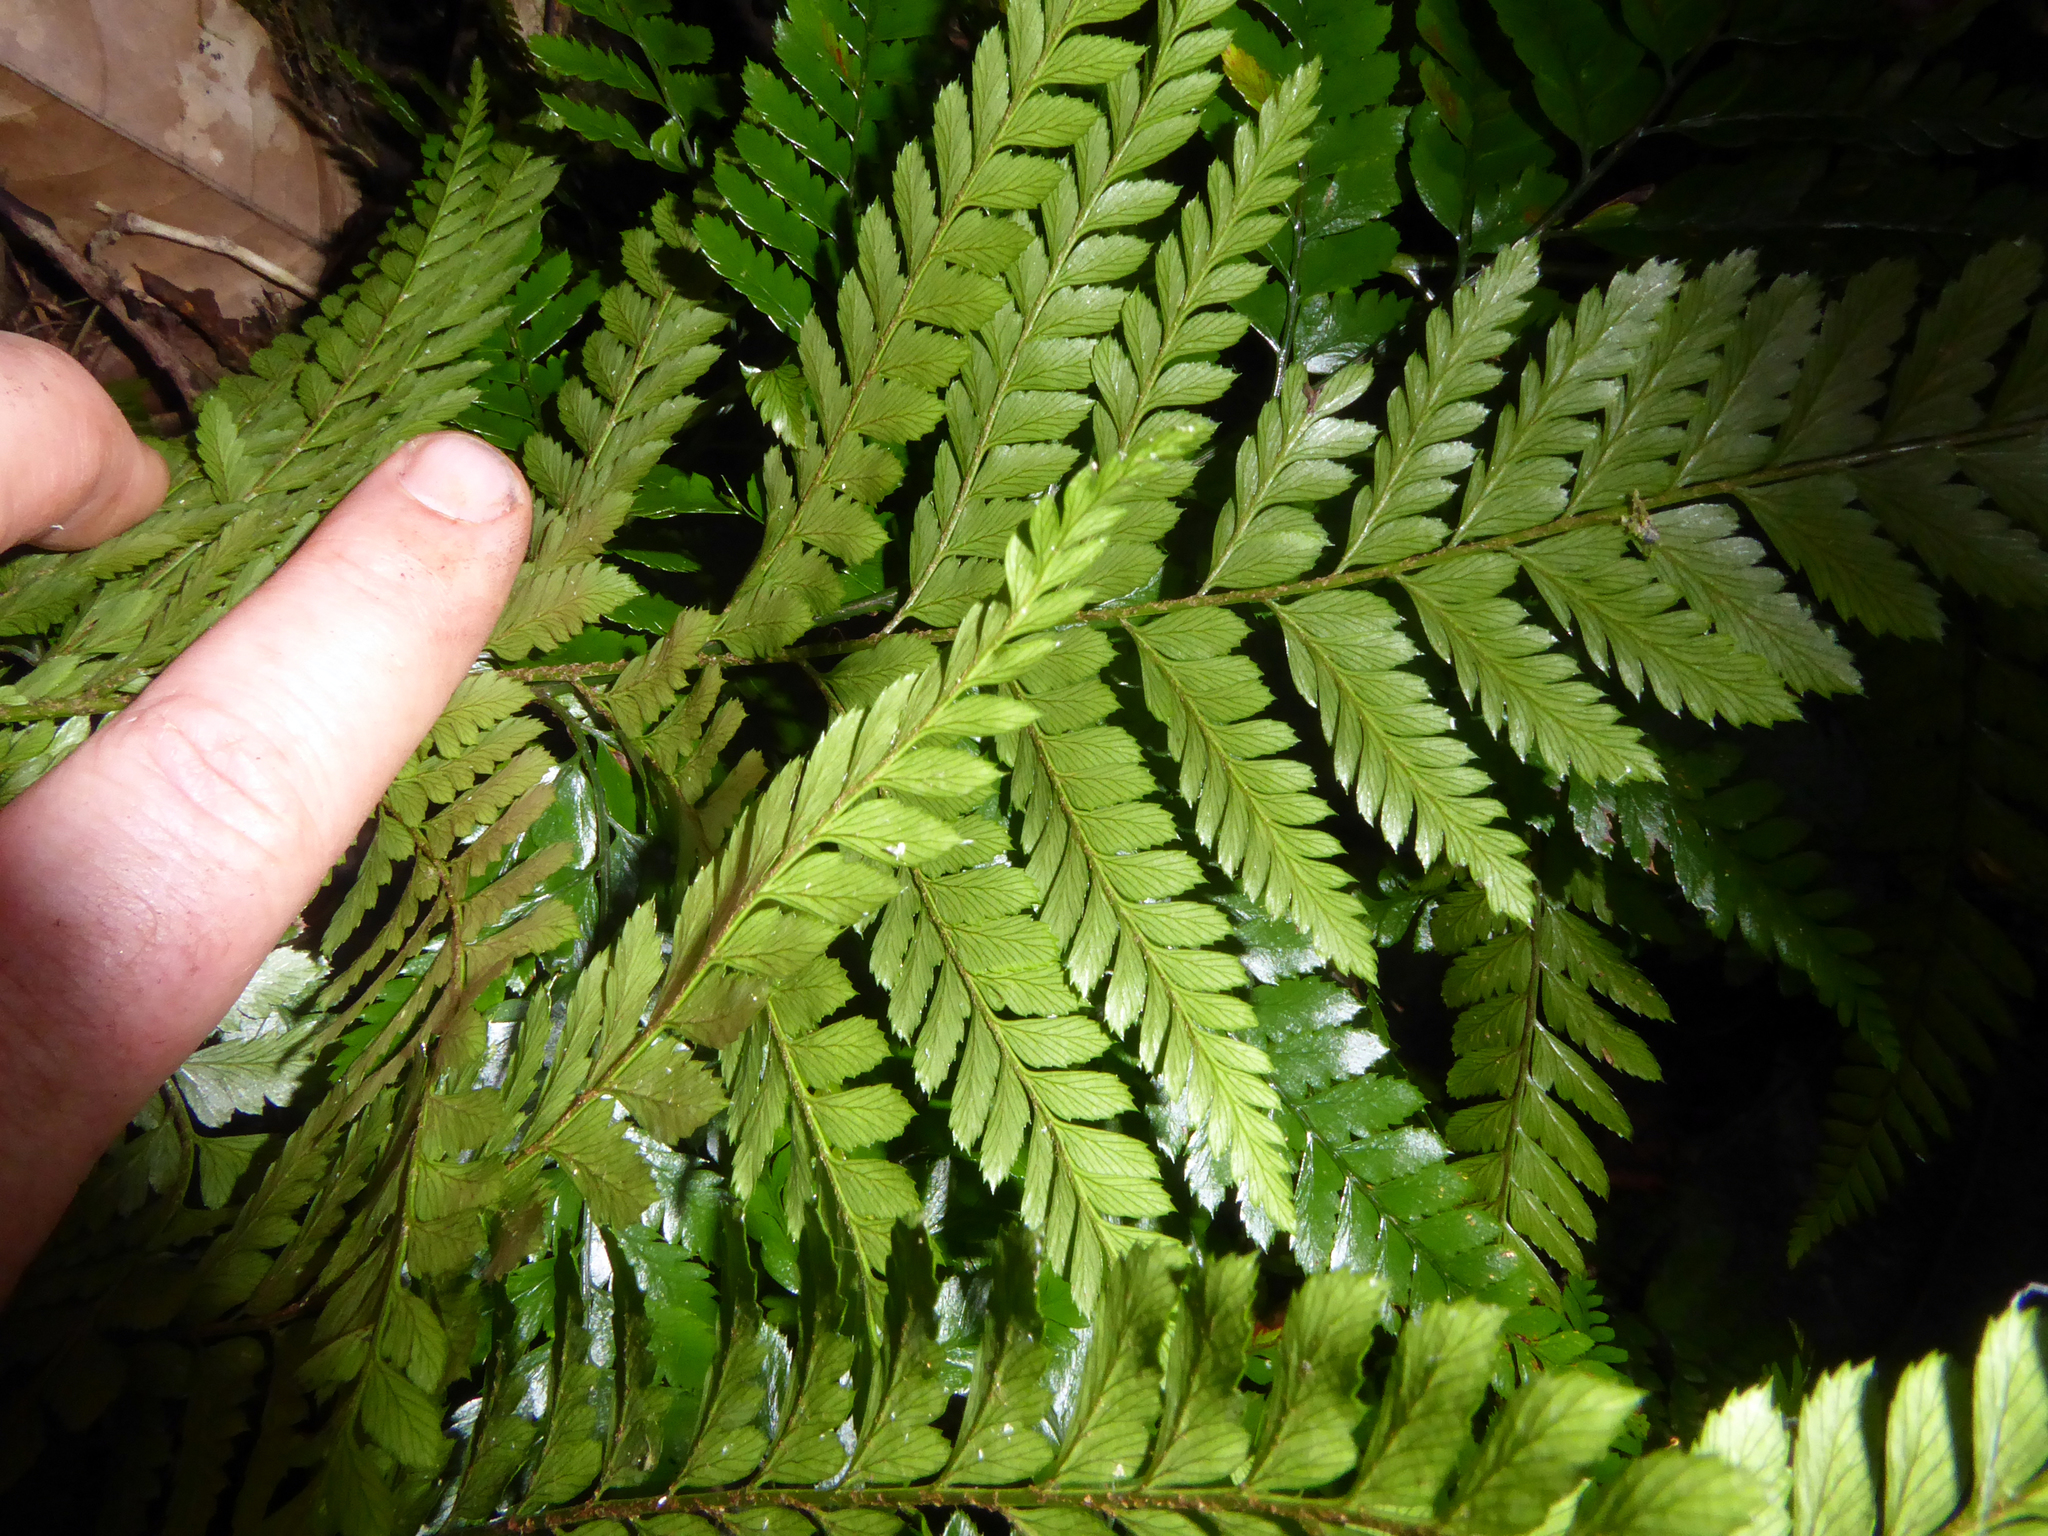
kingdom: Plantae
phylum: Tracheophyta
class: Polypodiopsida
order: Polypodiales
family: Dryopteridaceae
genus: Arachniodes
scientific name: Arachniodes aristata
